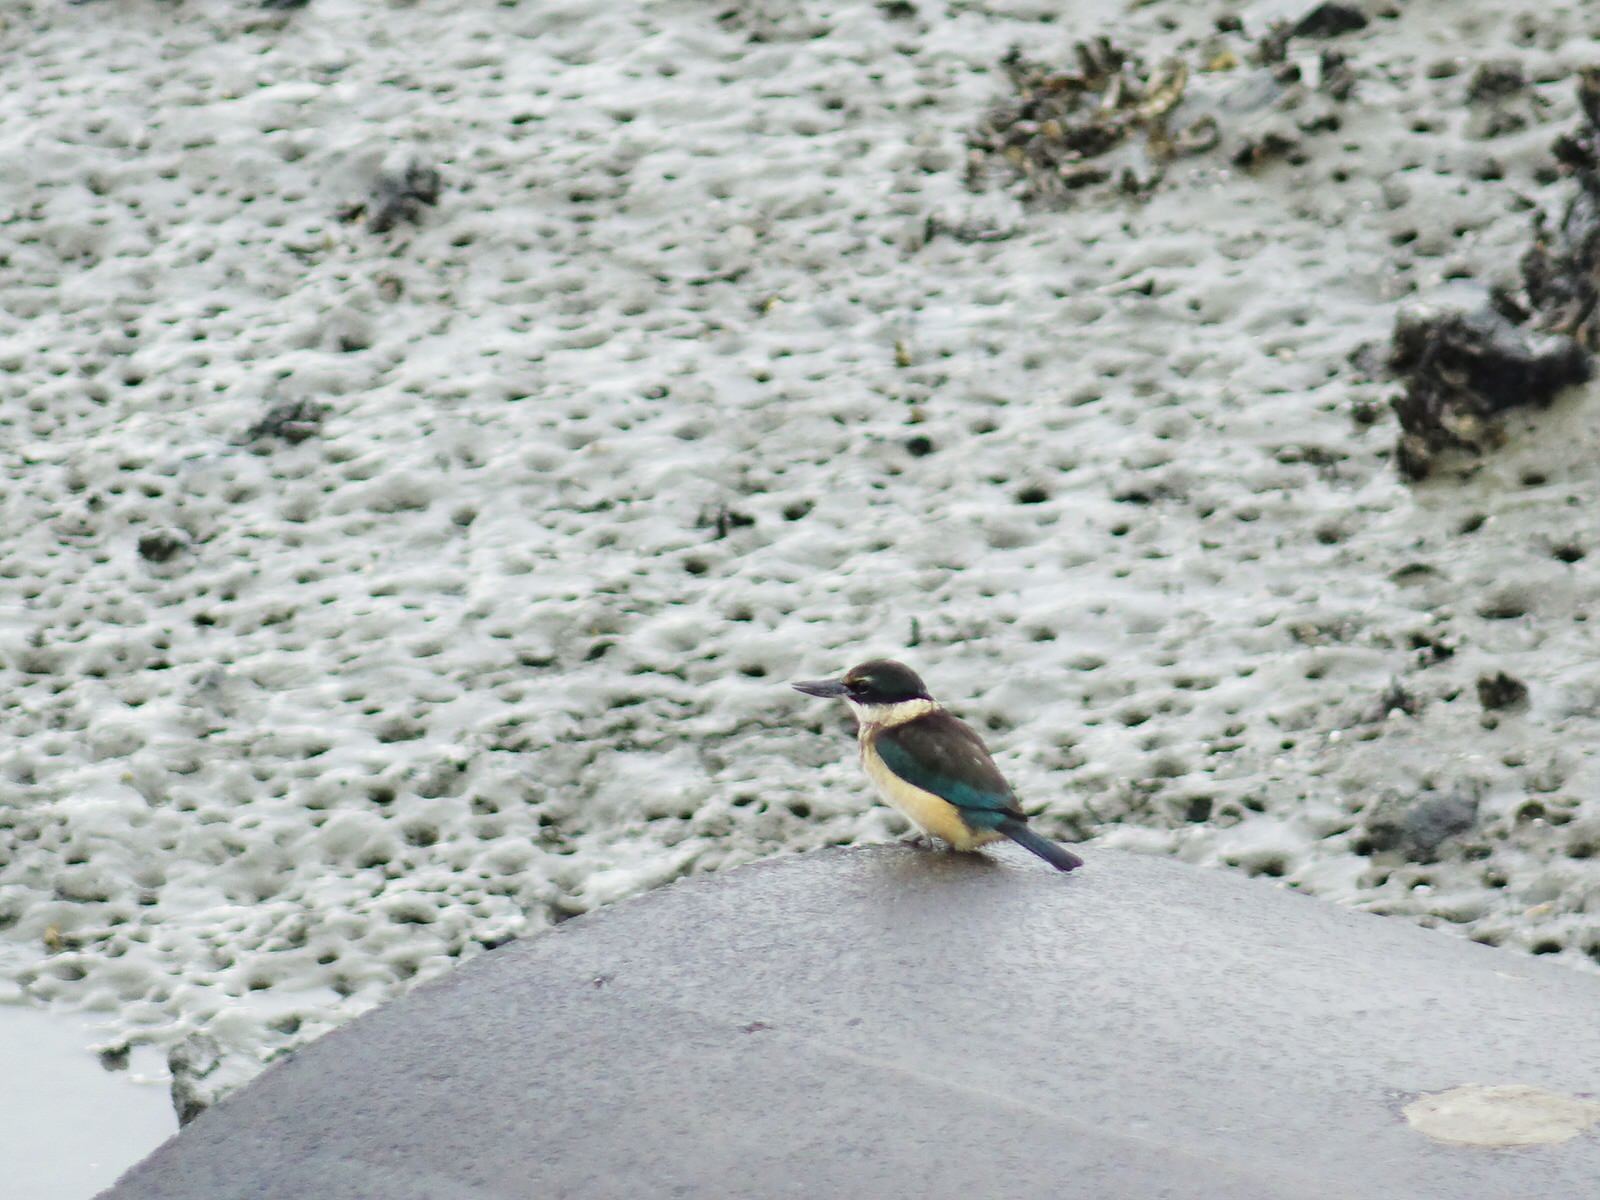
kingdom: Animalia
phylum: Chordata
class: Aves
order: Coraciiformes
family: Alcedinidae
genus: Todiramphus
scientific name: Todiramphus sanctus
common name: Sacred kingfisher
